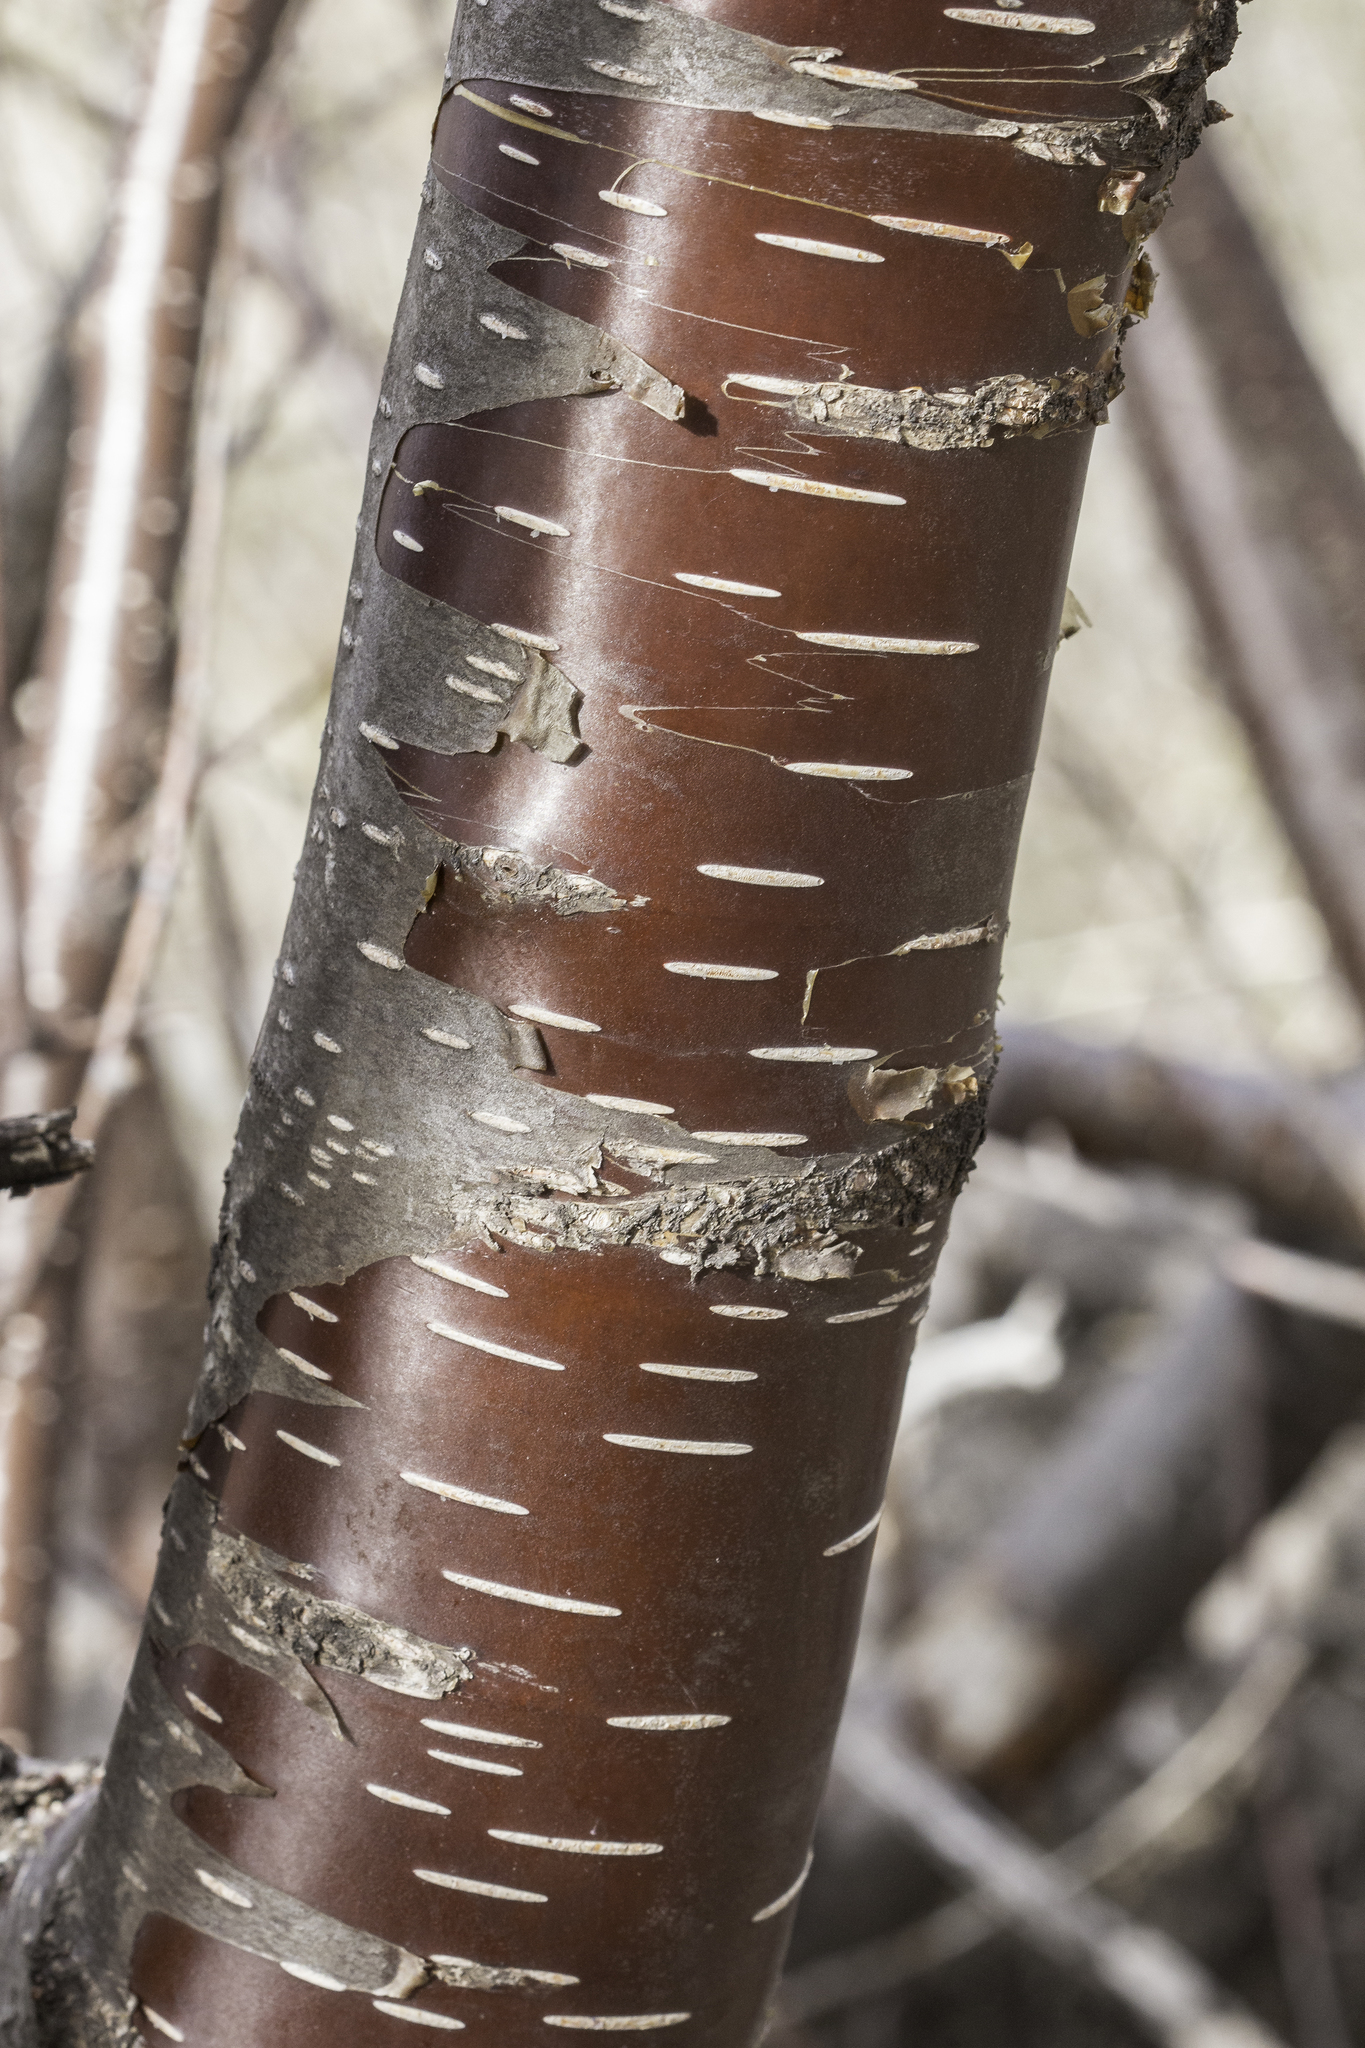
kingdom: Plantae
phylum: Tracheophyta
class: Magnoliopsida
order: Fagales
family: Betulaceae
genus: Betula
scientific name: Betula occidentalis
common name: River birch
